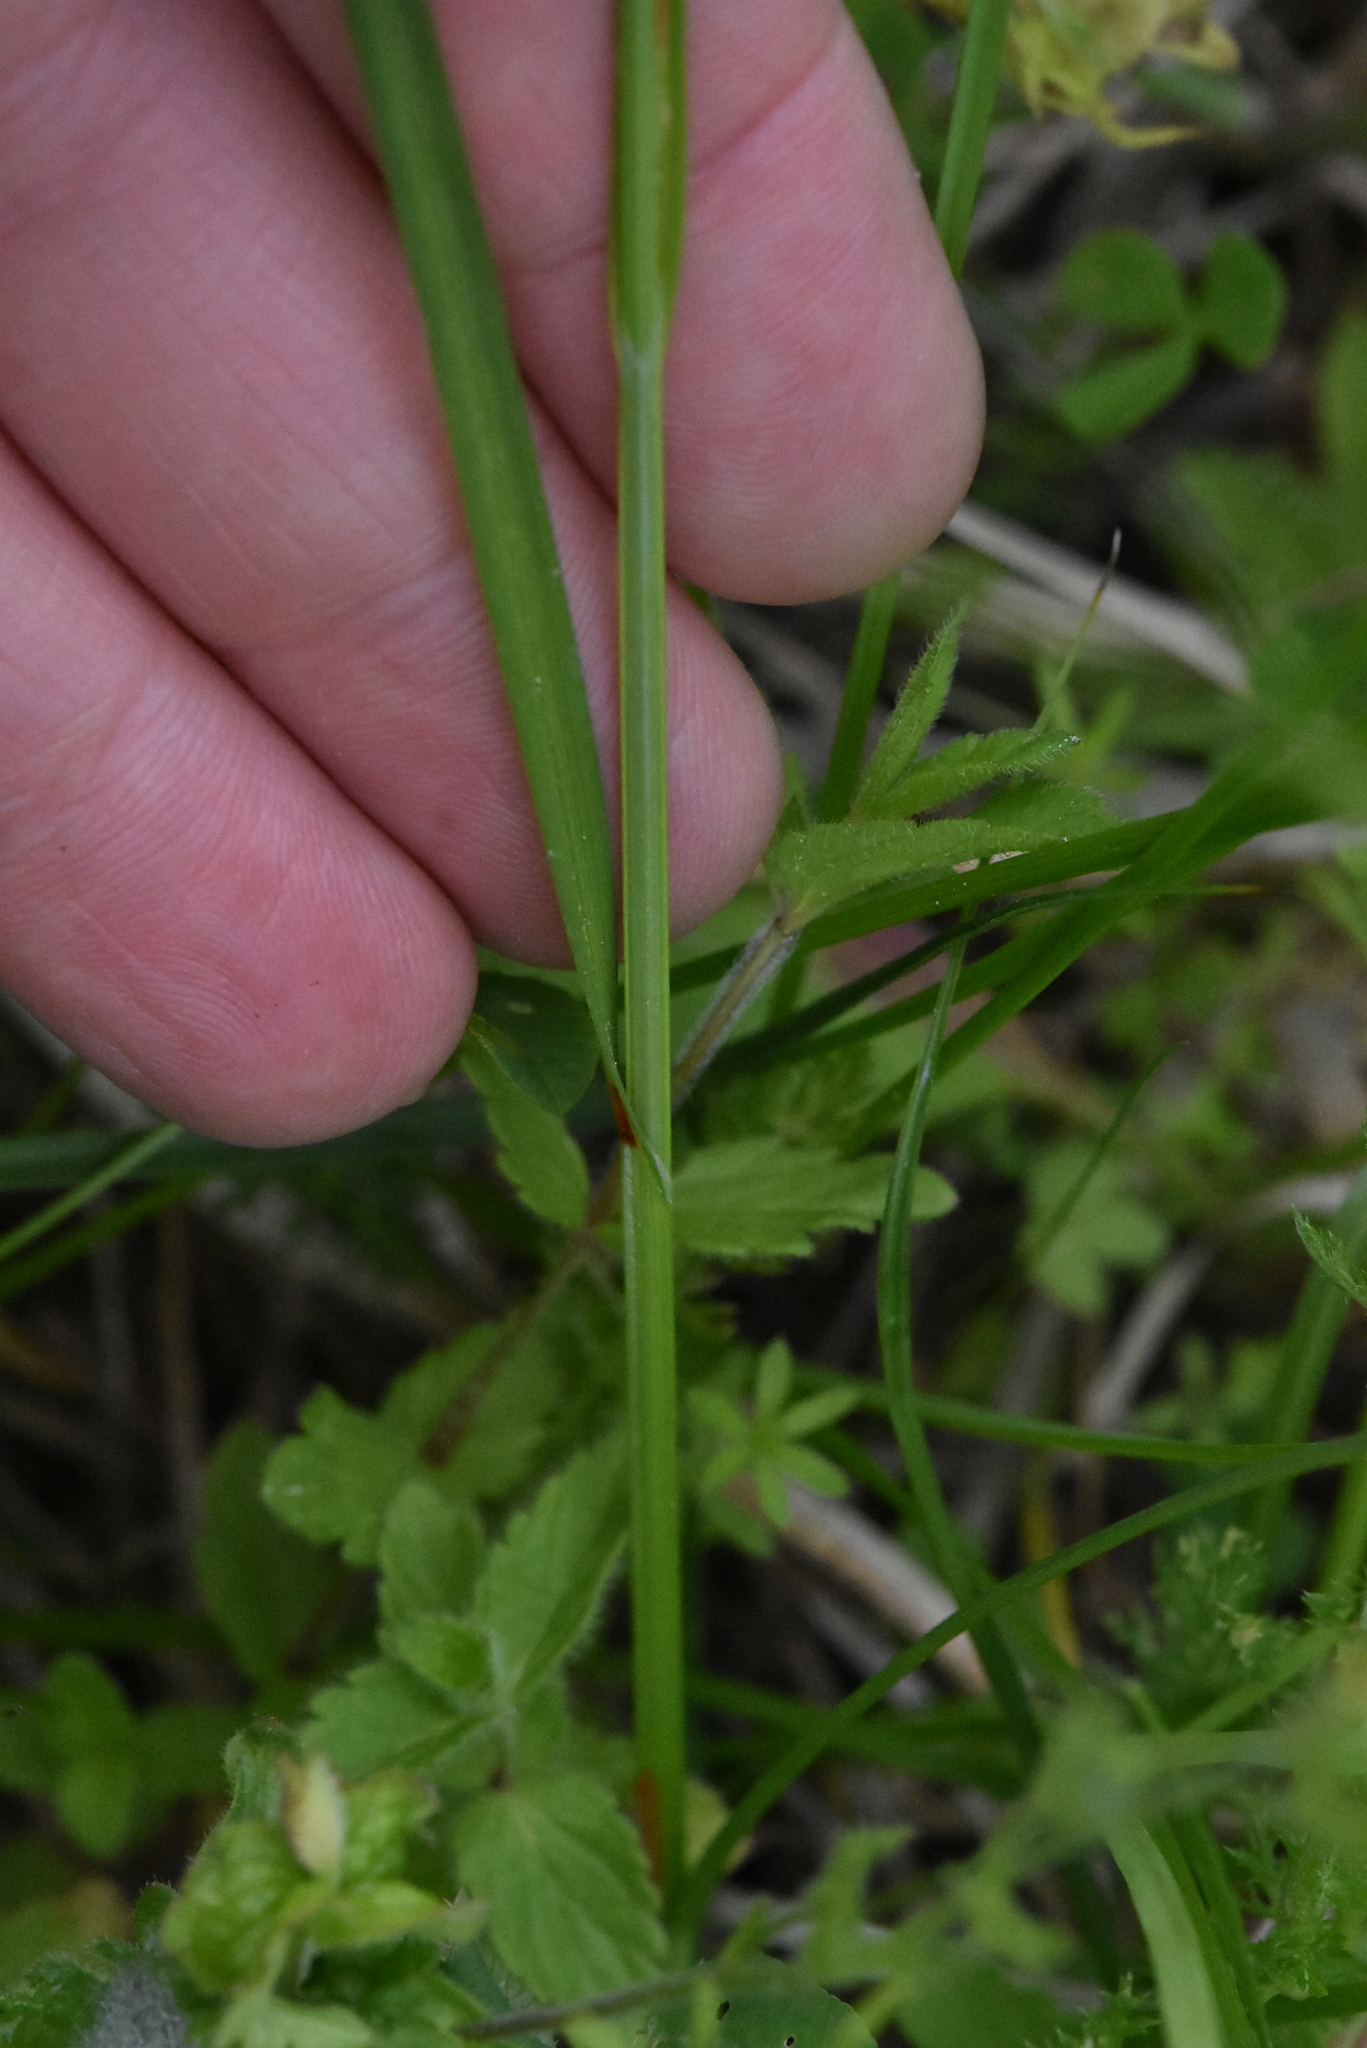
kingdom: Plantae
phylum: Tracheophyta
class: Liliopsida
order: Poales
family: Cyperaceae
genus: Carex
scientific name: Carex spicata
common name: Spiked sedge
